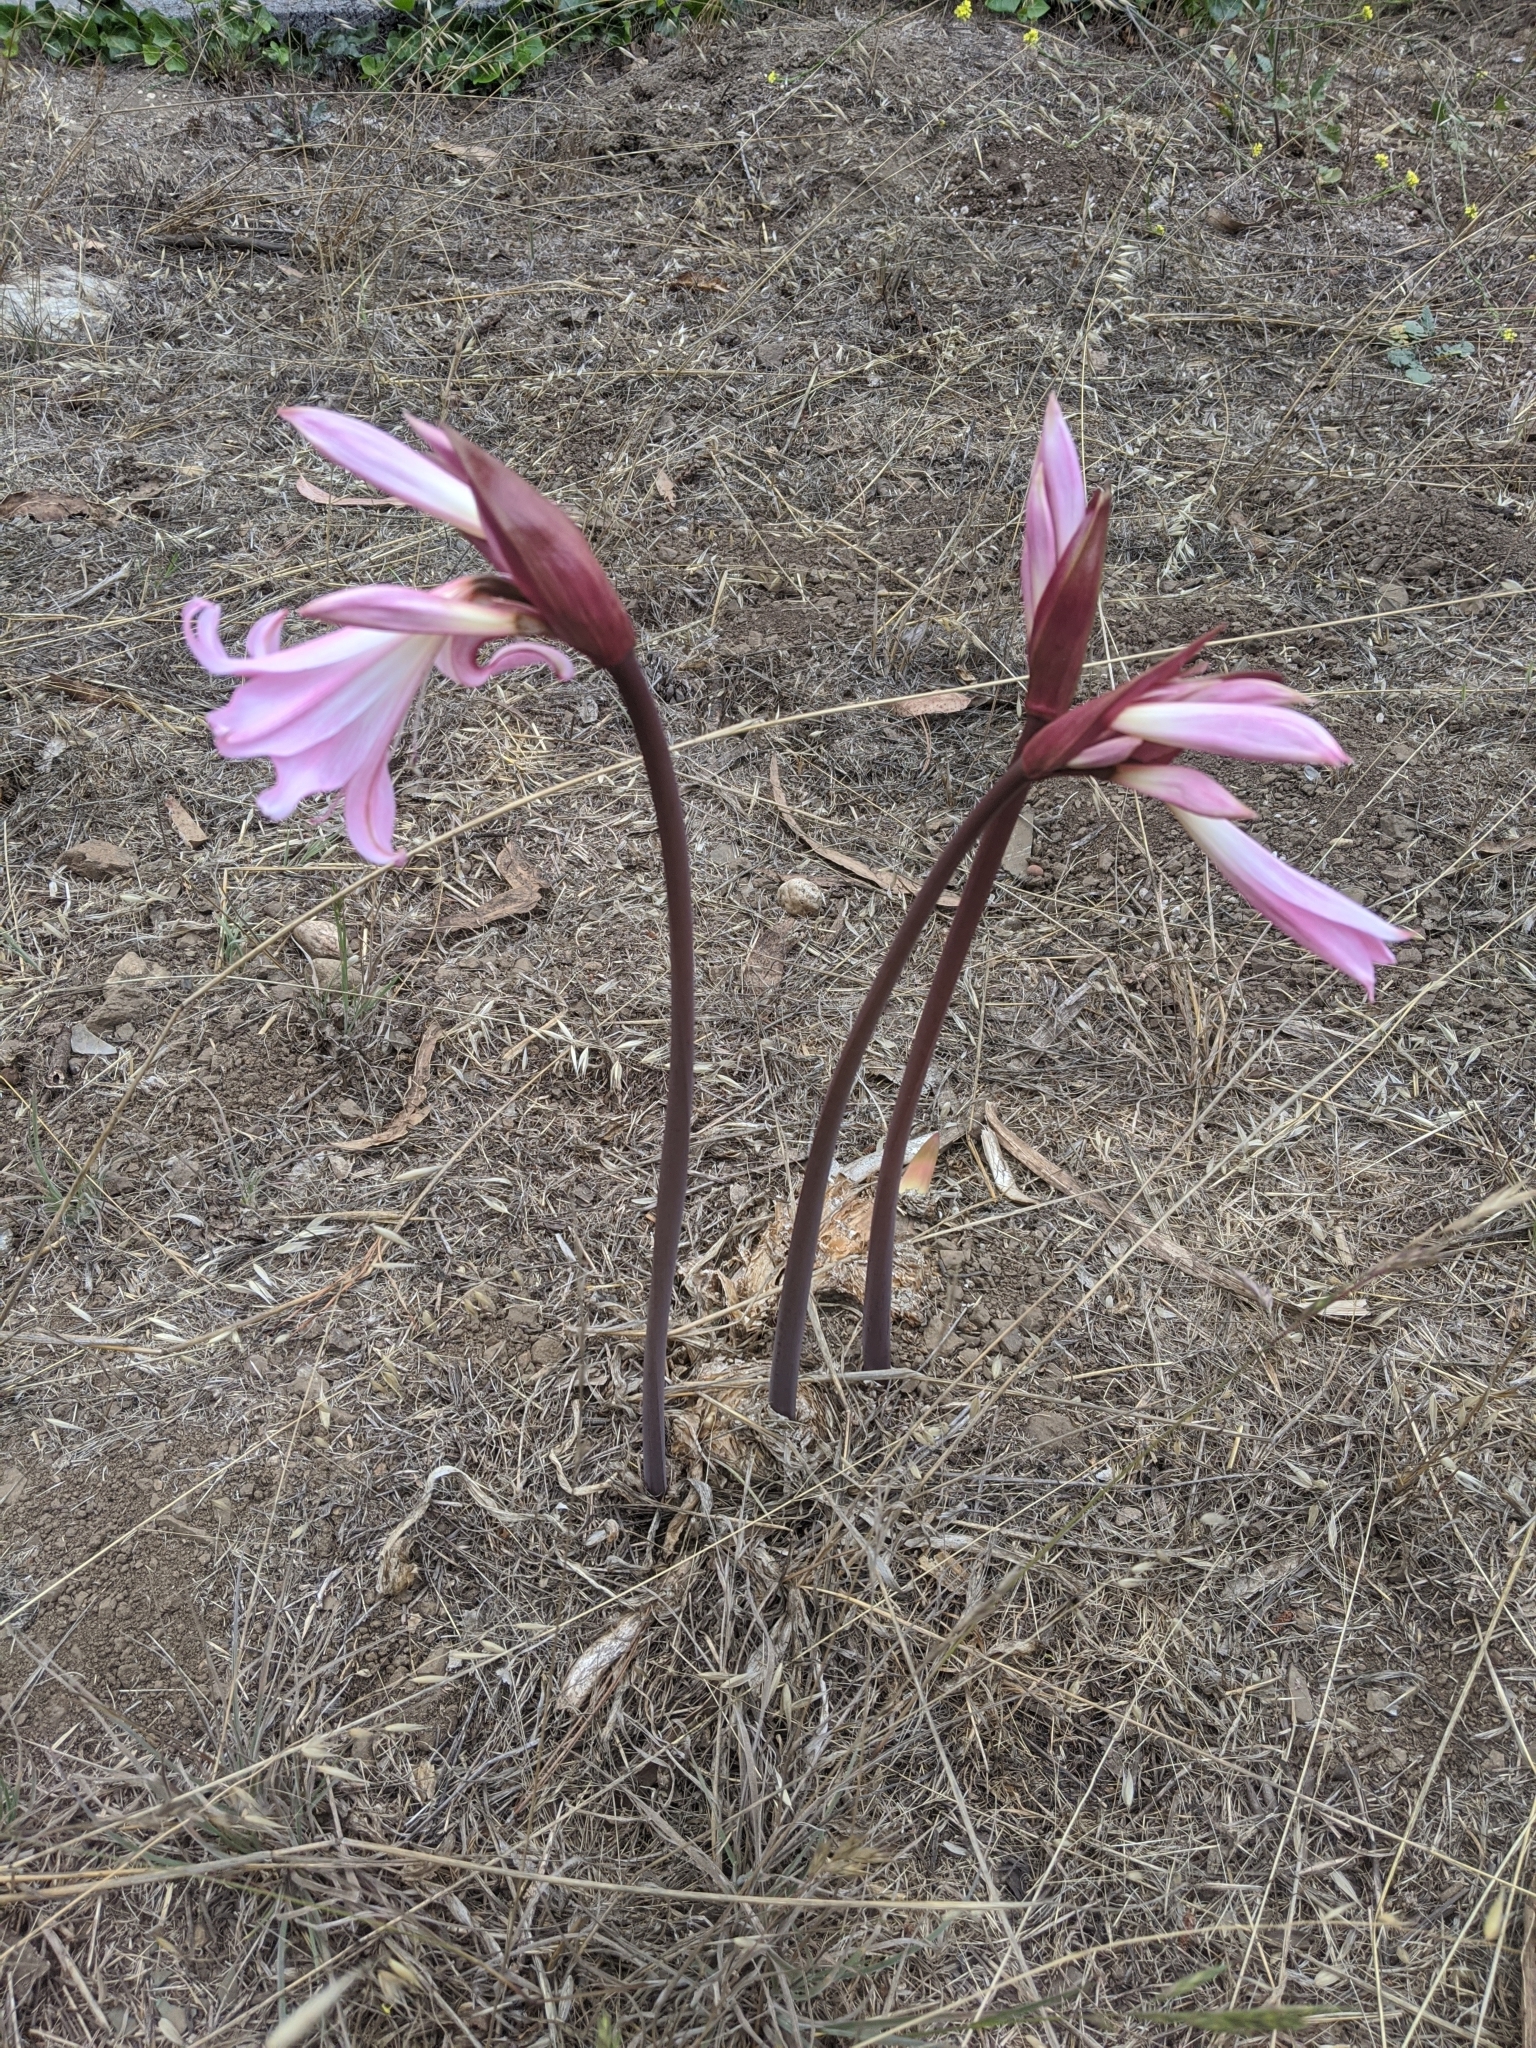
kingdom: Plantae
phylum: Tracheophyta
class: Liliopsida
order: Asparagales
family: Amaryllidaceae
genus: Amaryllis
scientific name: Amaryllis belladonna
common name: Jersey lily
